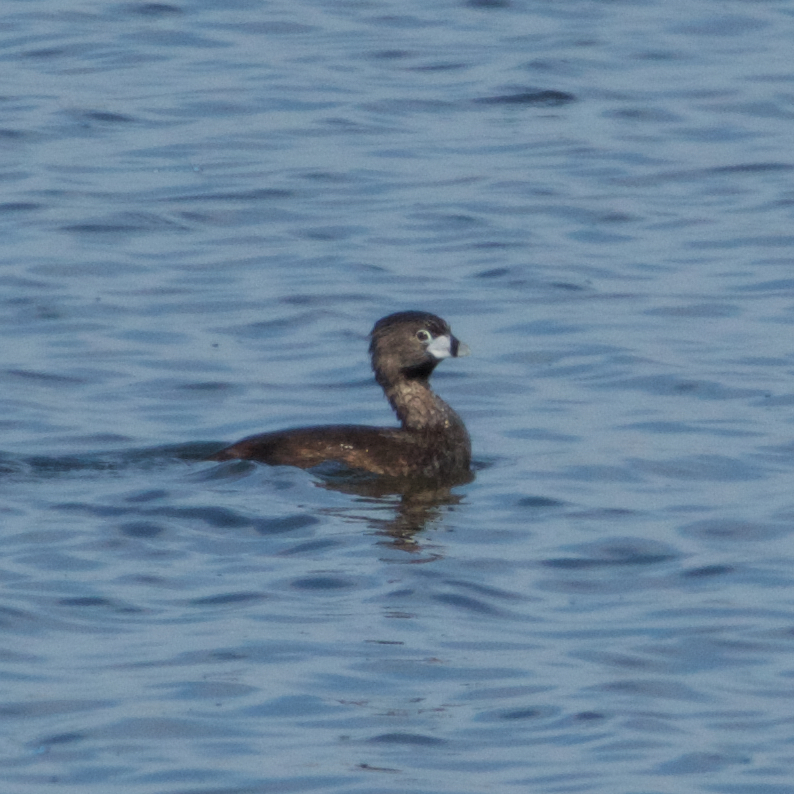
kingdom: Animalia
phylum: Chordata
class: Aves
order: Podicipediformes
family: Podicipedidae
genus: Podilymbus
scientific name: Podilymbus podiceps
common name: Pied-billed grebe
